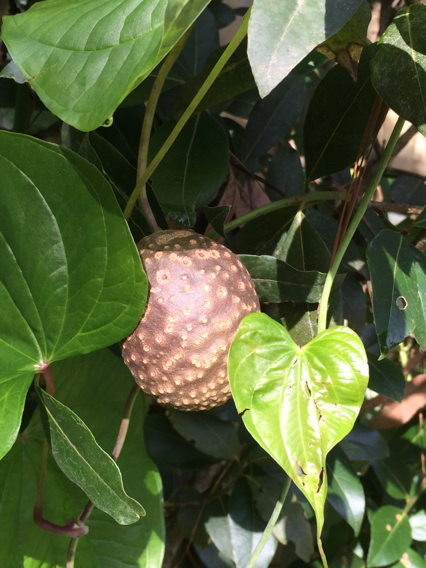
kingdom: Plantae
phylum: Tracheophyta
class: Liliopsida
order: Dioscoreales
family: Dioscoreaceae
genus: Dioscorea
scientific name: Dioscorea bulbifera
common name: Air yam
